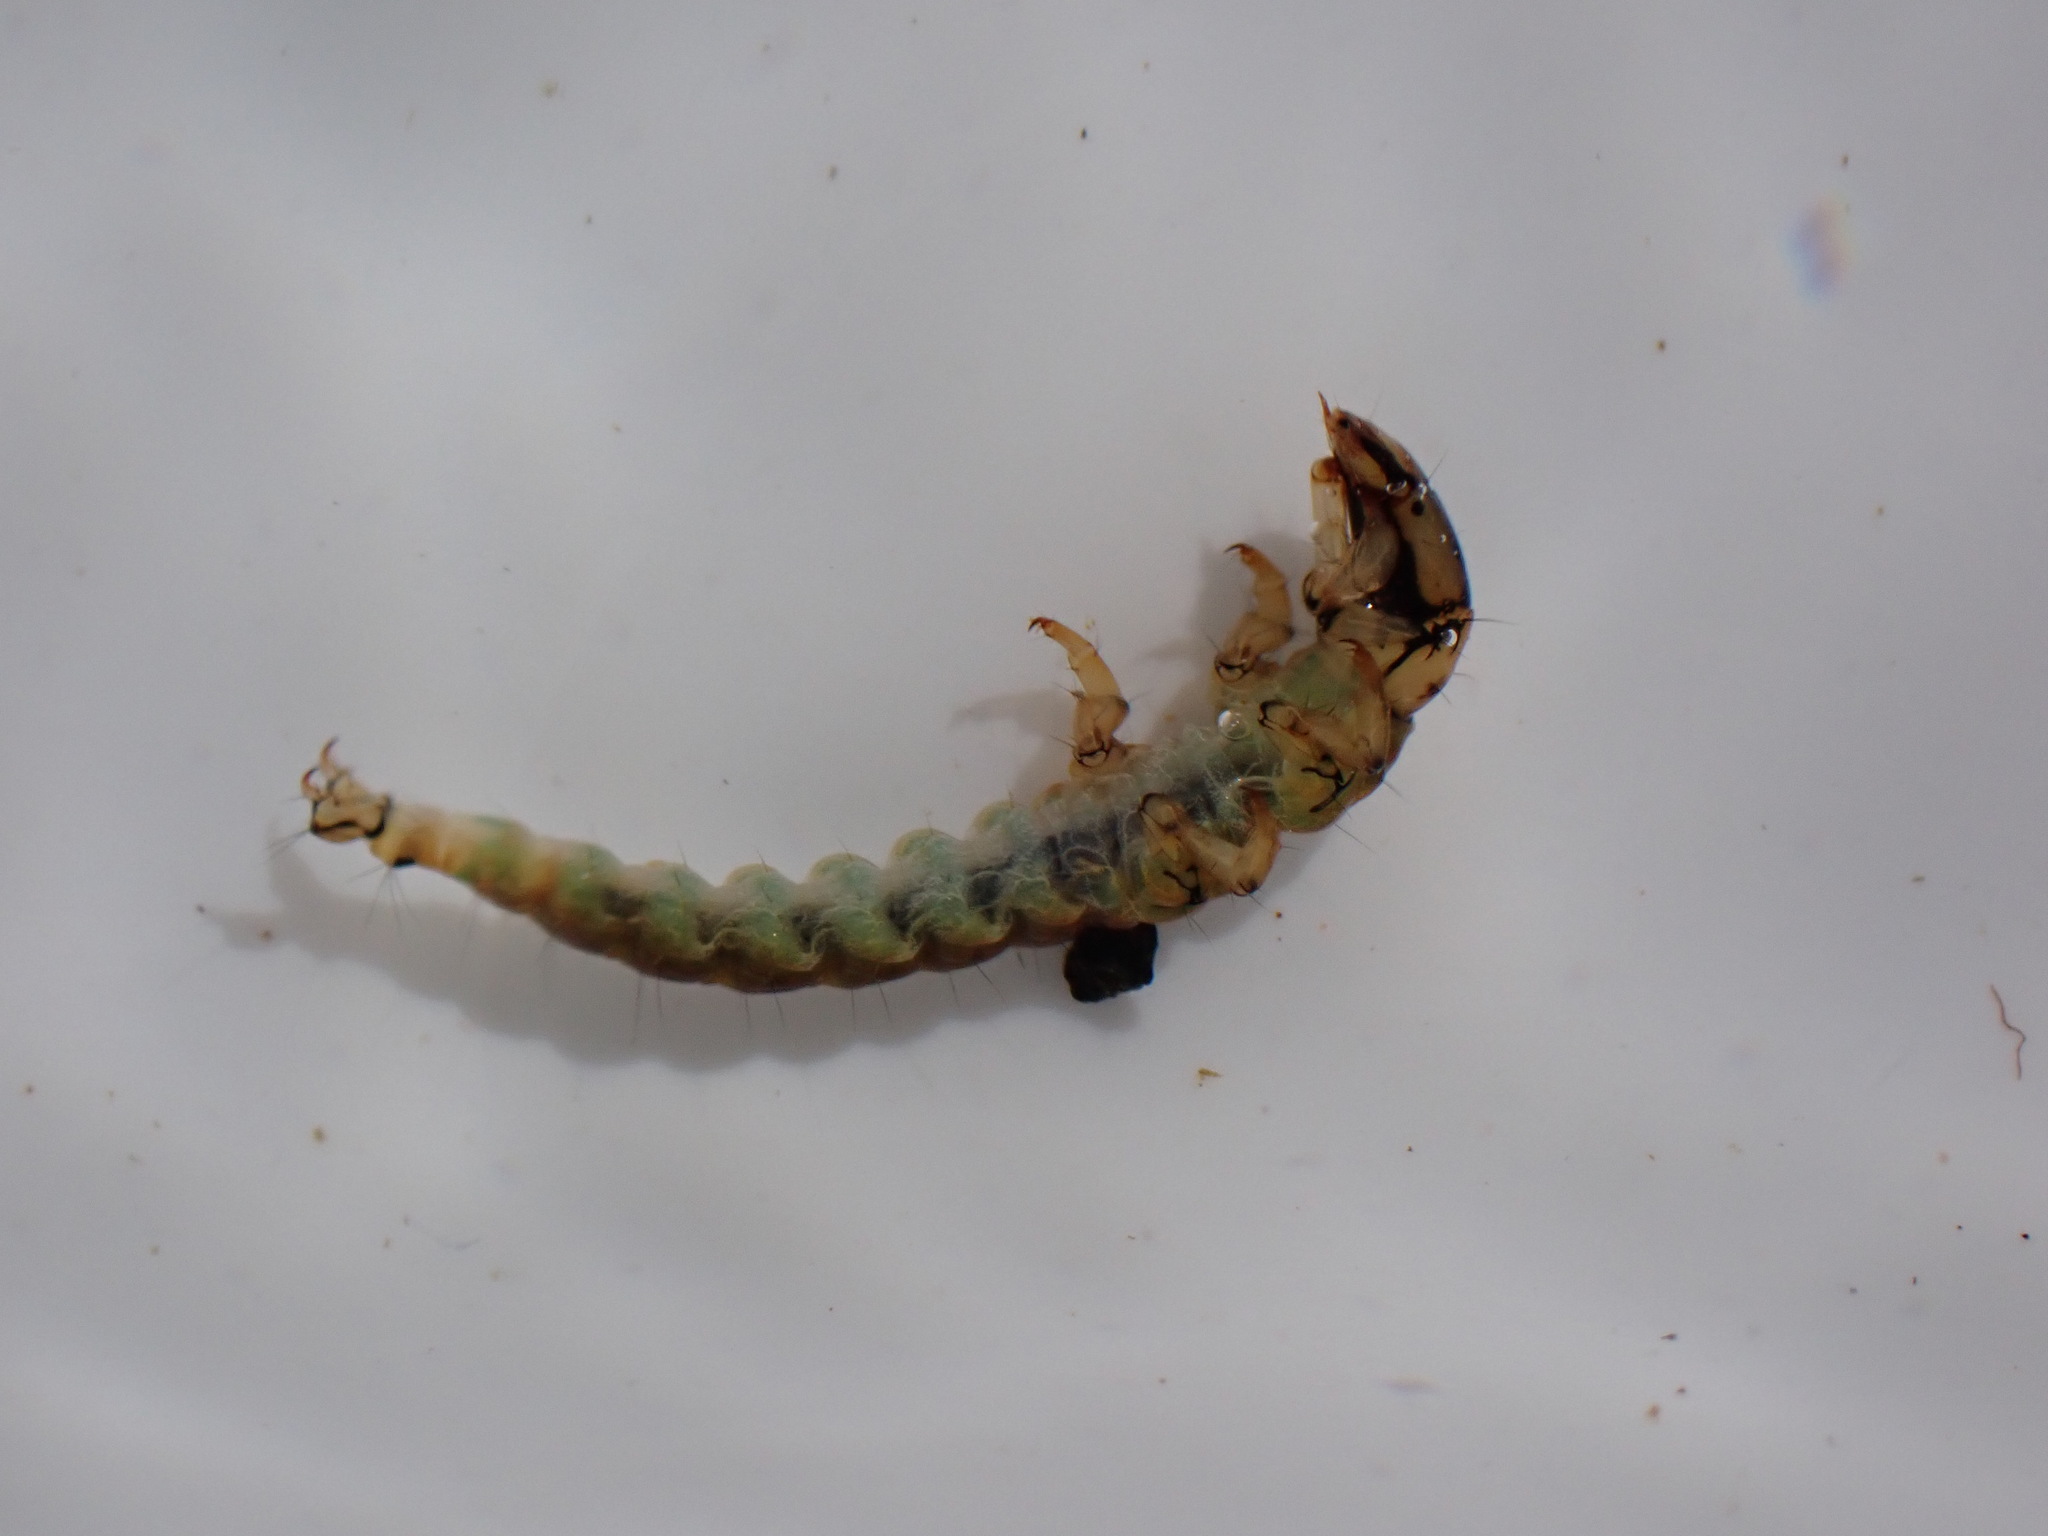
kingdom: Animalia
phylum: Arthropoda
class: Insecta
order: Trichoptera
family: Hydrobiosidae
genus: Costachorema
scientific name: Costachorema xanthopterum
